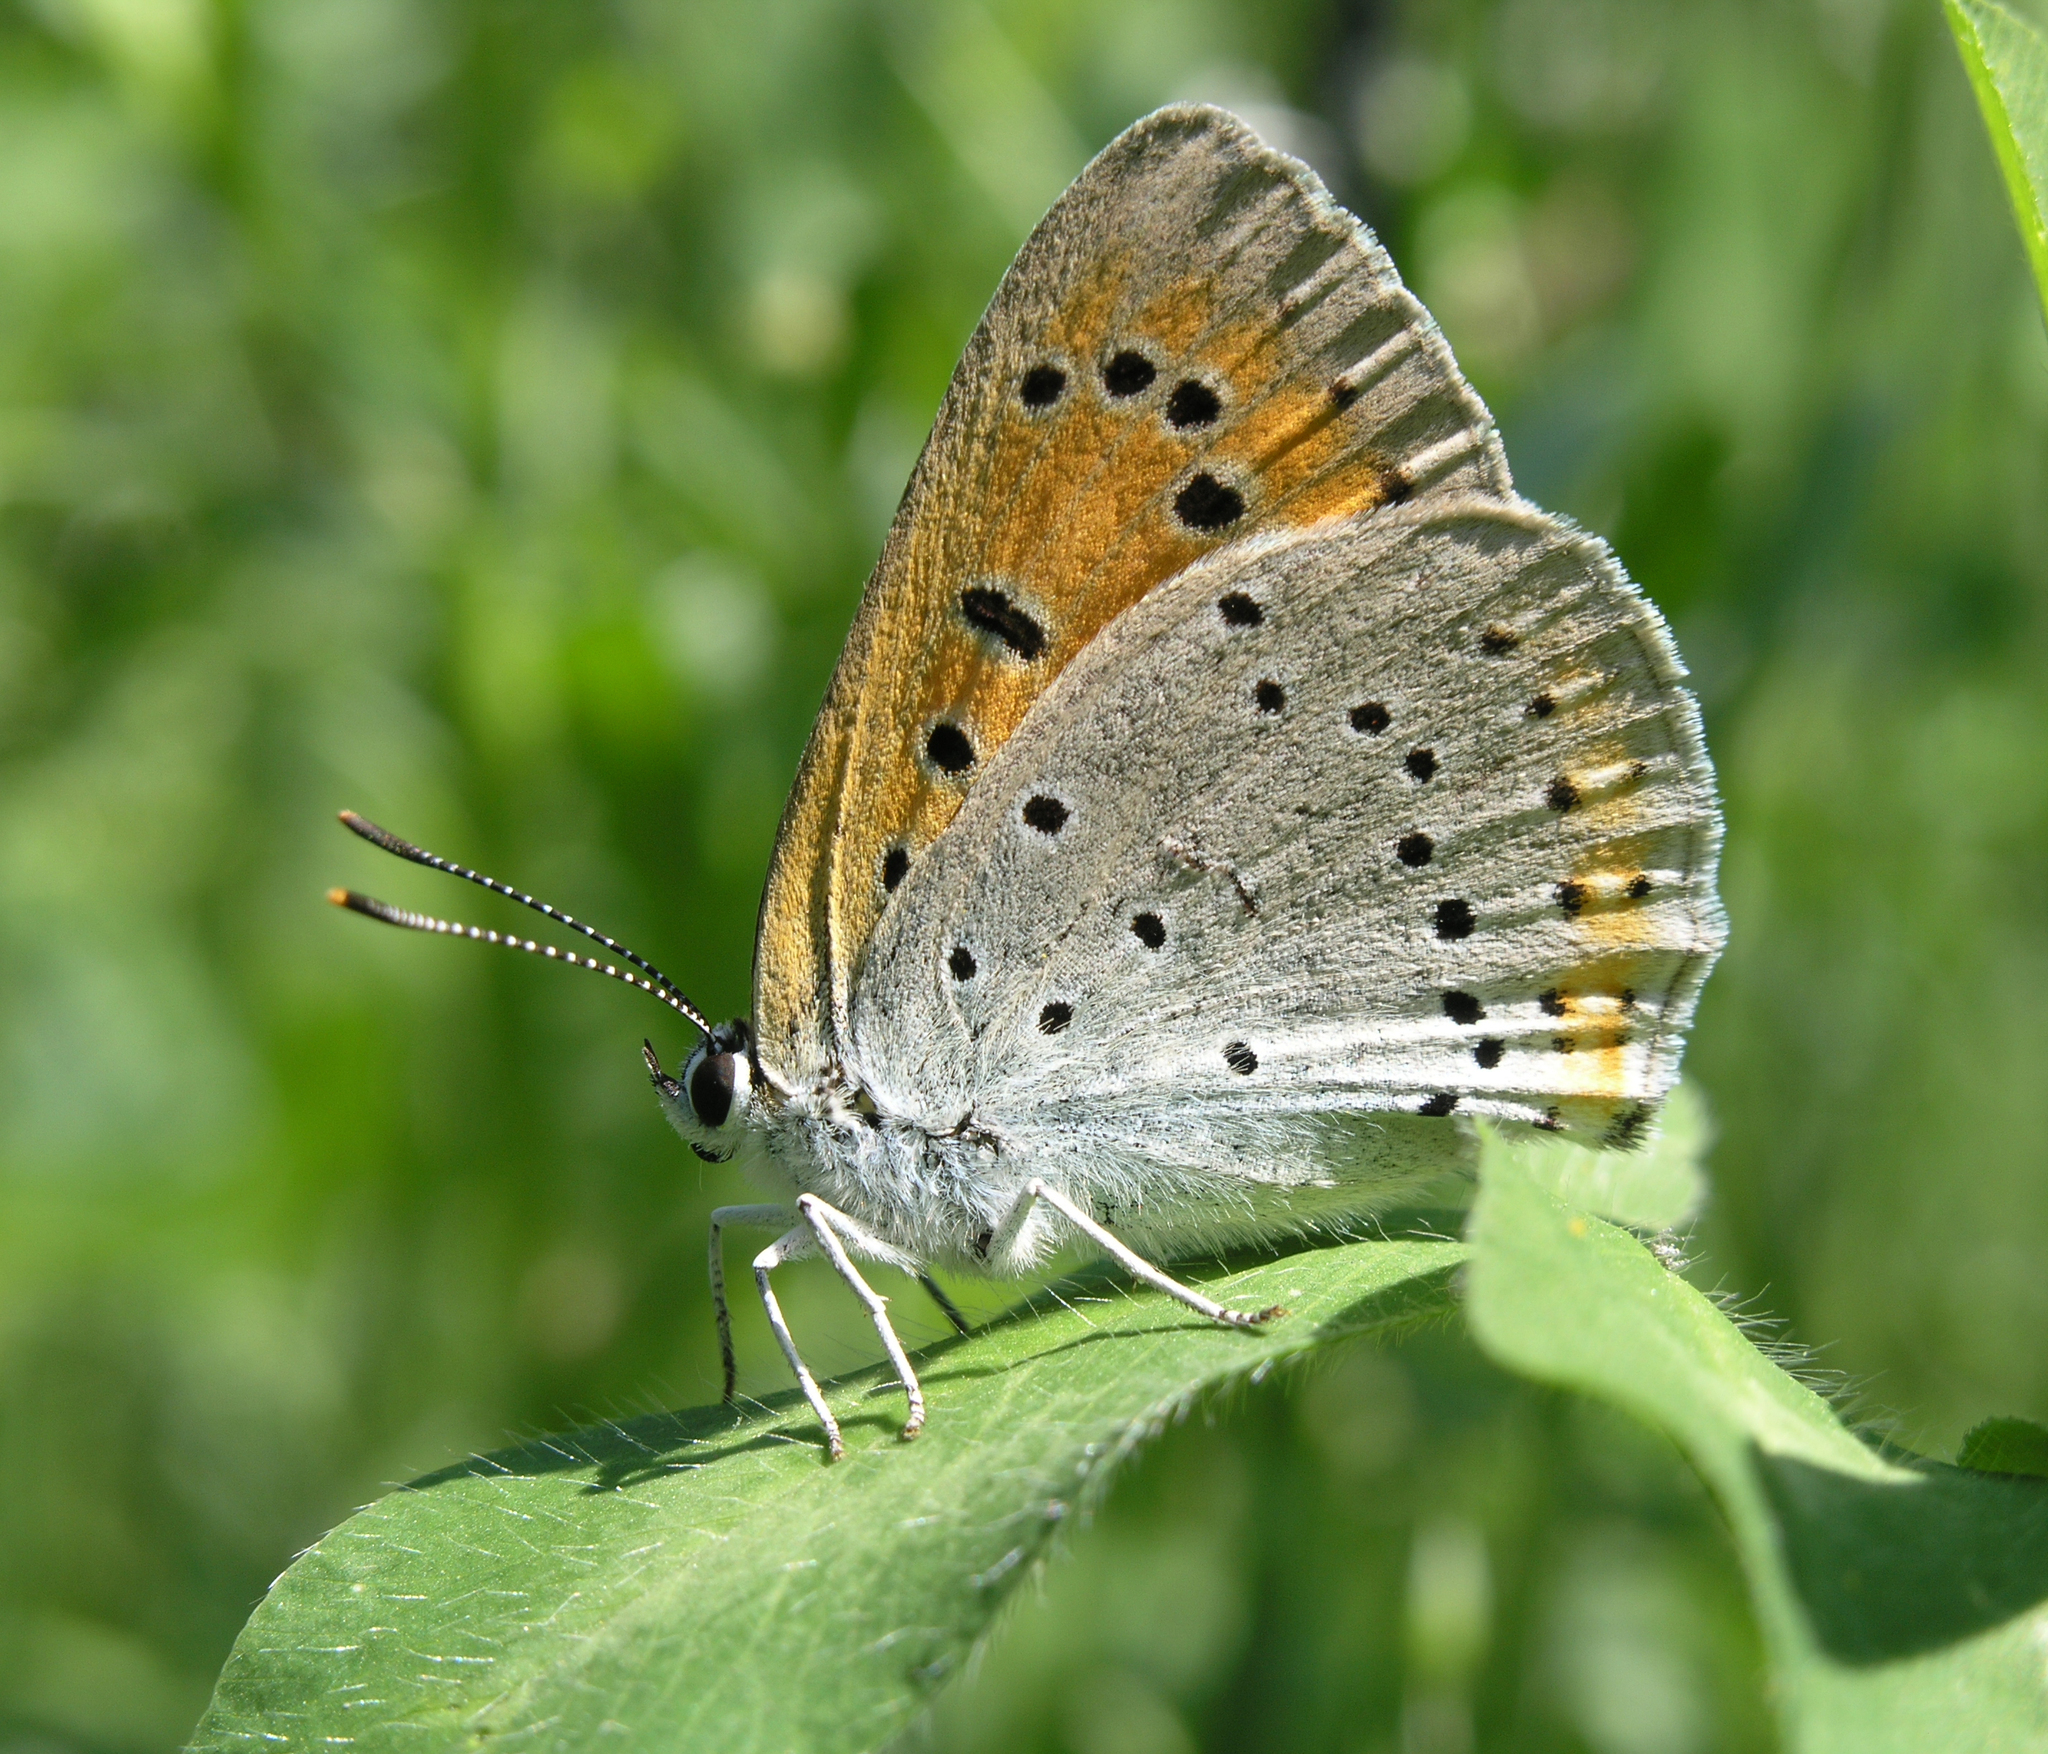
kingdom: Animalia
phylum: Arthropoda
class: Insecta
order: Lepidoptera
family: Lycaenidae
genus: Lycaena
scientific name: Lycaena dispar
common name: Large copper
